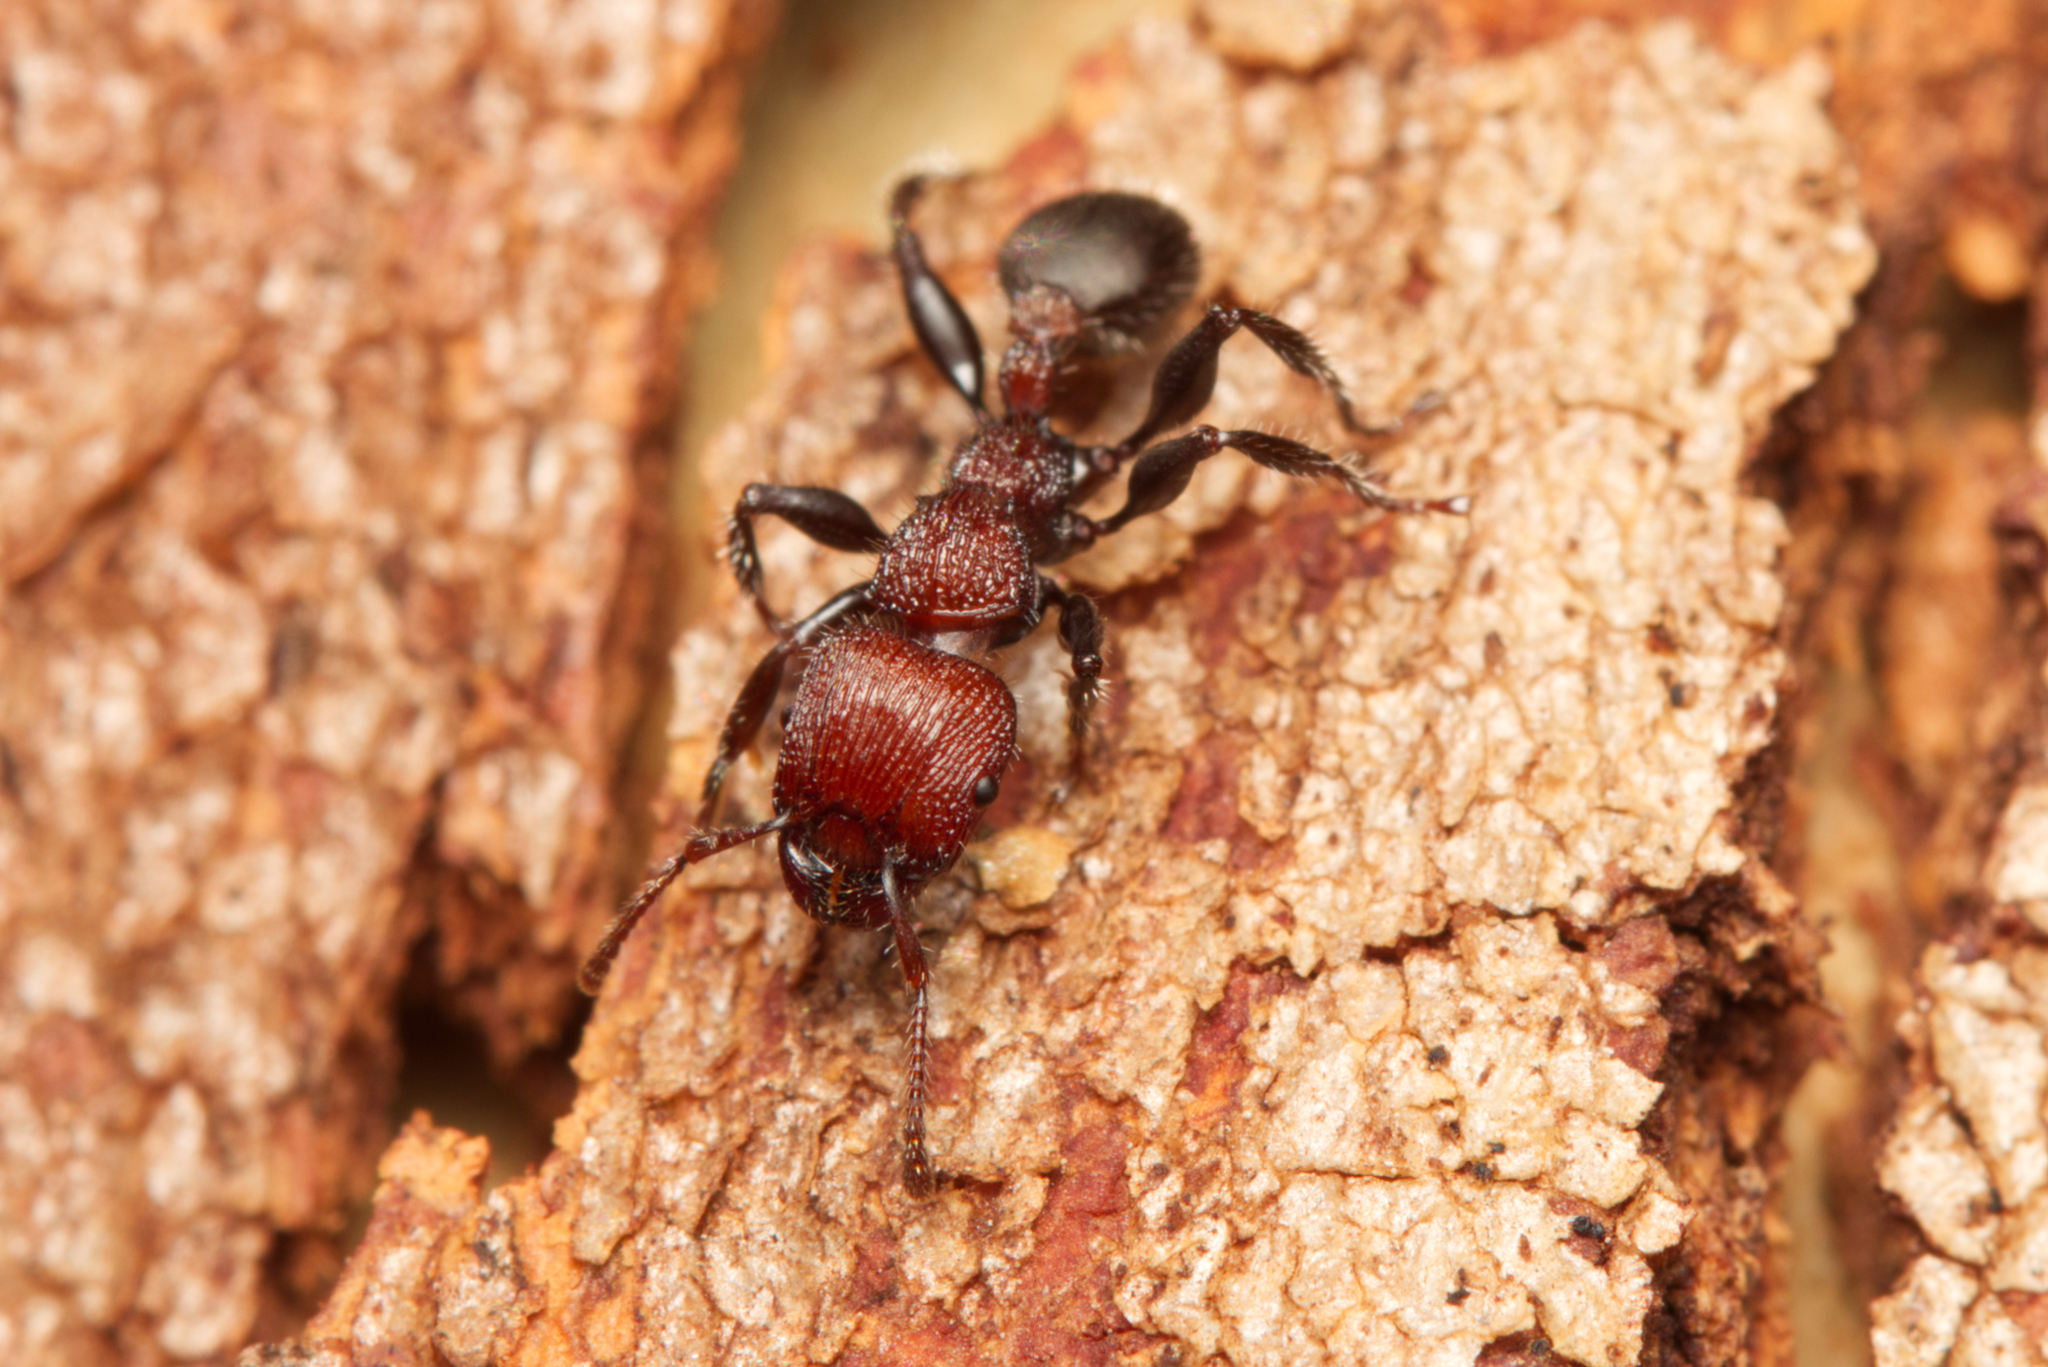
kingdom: Animalia
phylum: Arthropoda
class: Insecta
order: Hymenoptera
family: Formicidae
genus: Podomyrma
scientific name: Podomyrma micans
